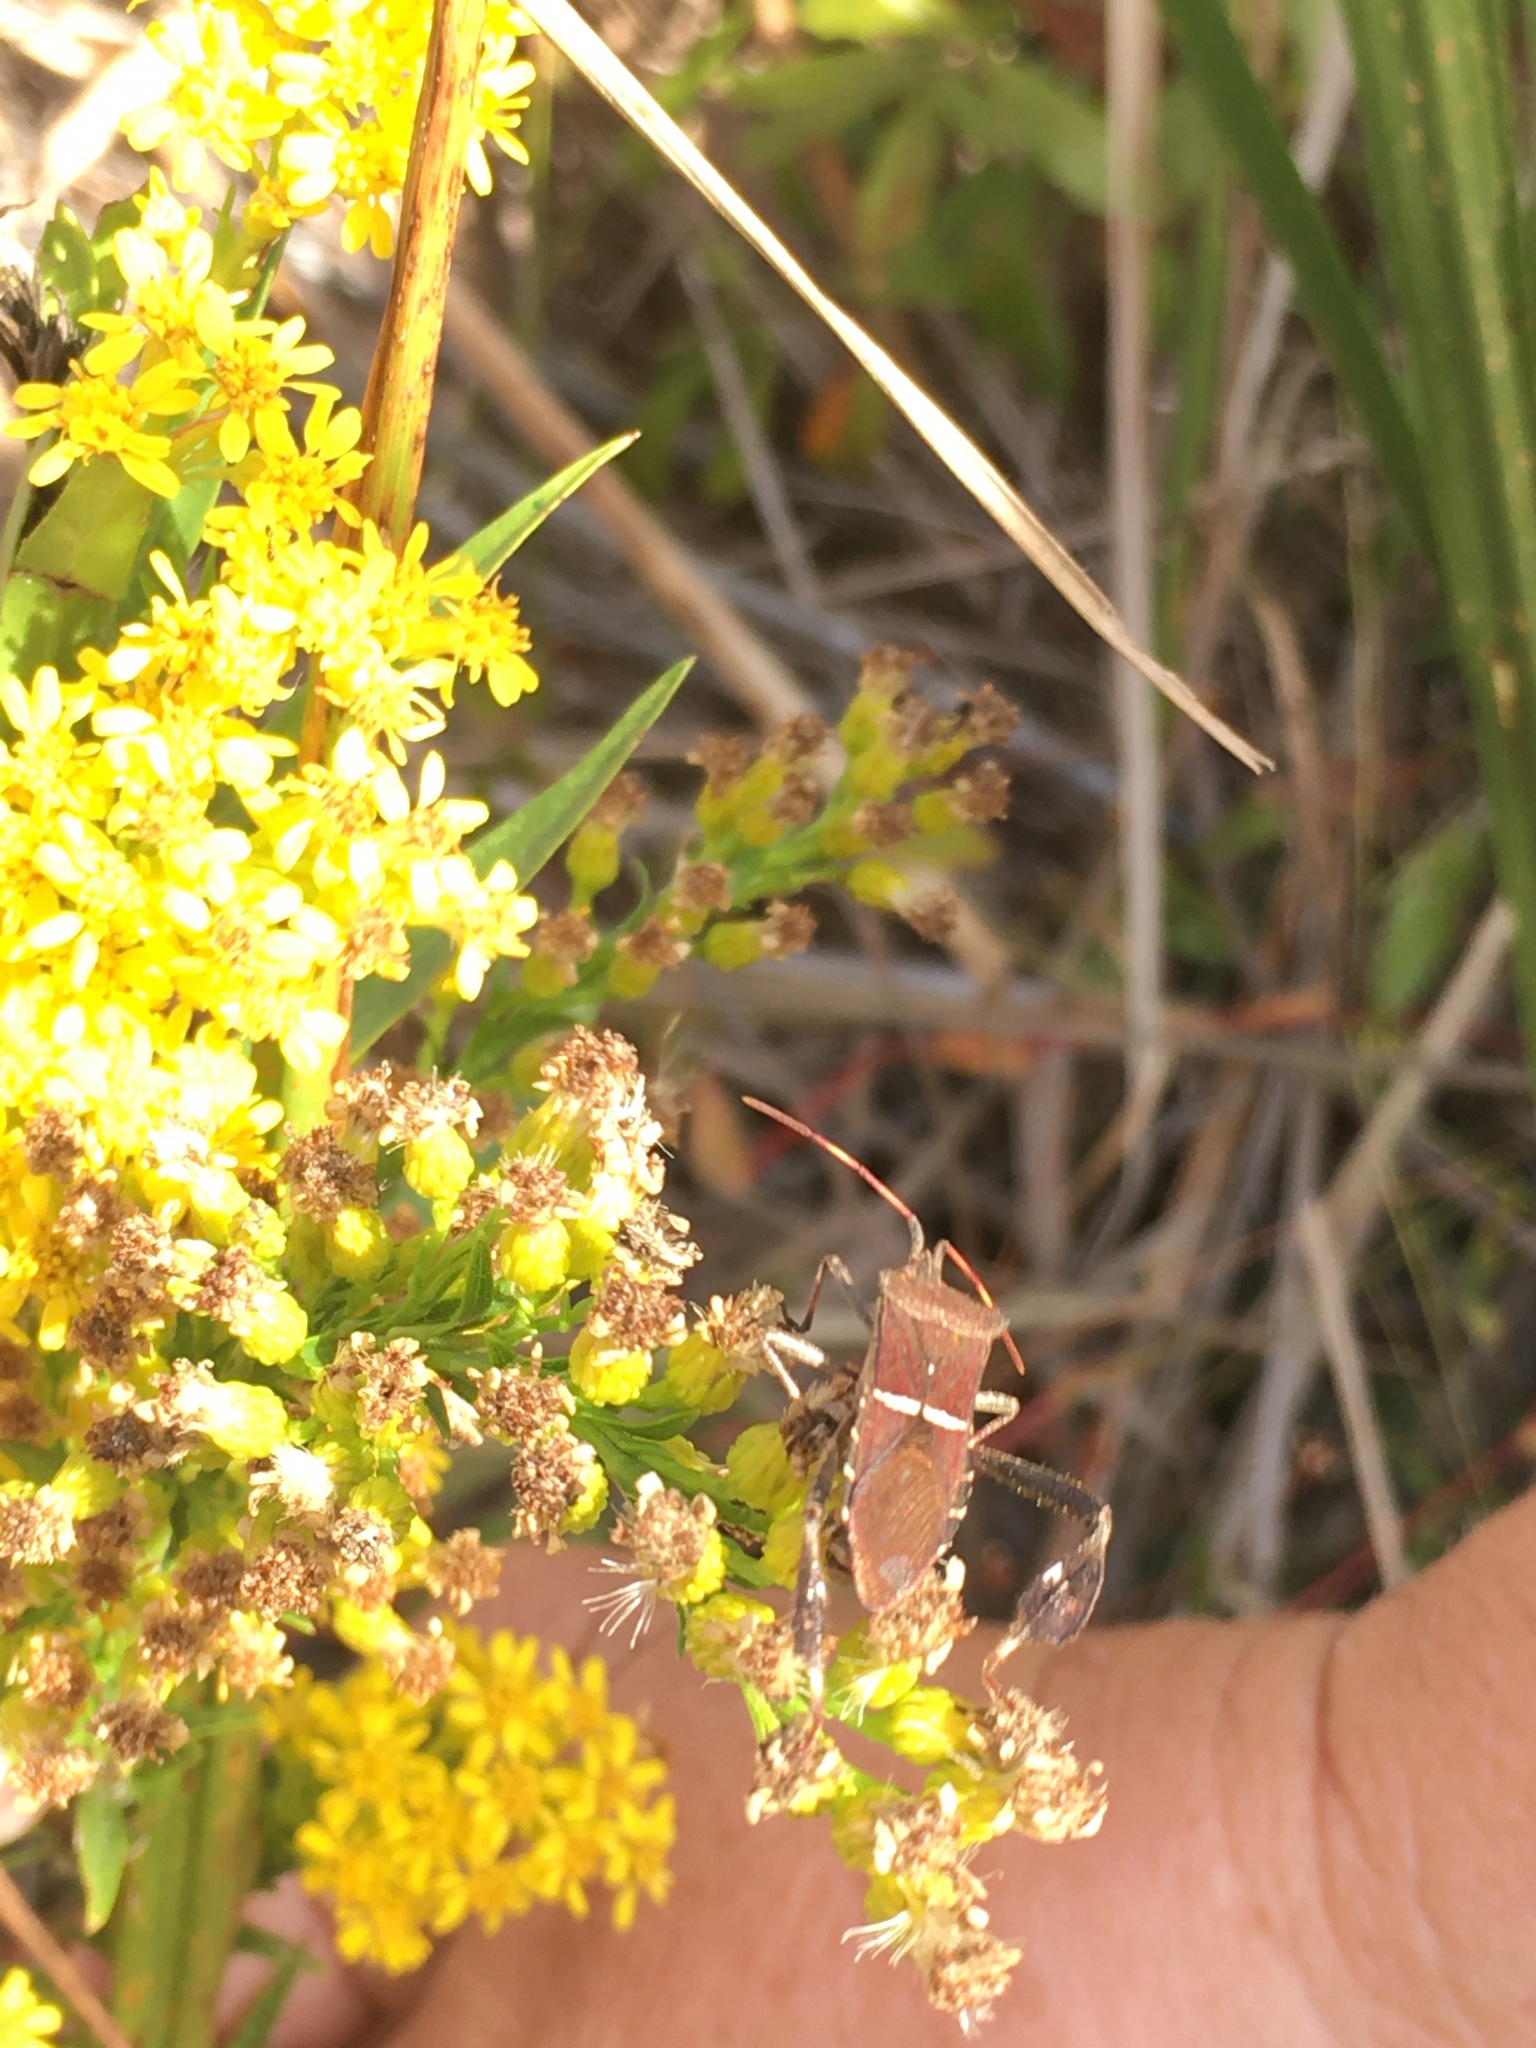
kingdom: Animalia
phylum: Arthropoda
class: Insecta
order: Hemiptera
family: Coreidae
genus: Leptoglossus
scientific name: Leptoglossus phyllopus
